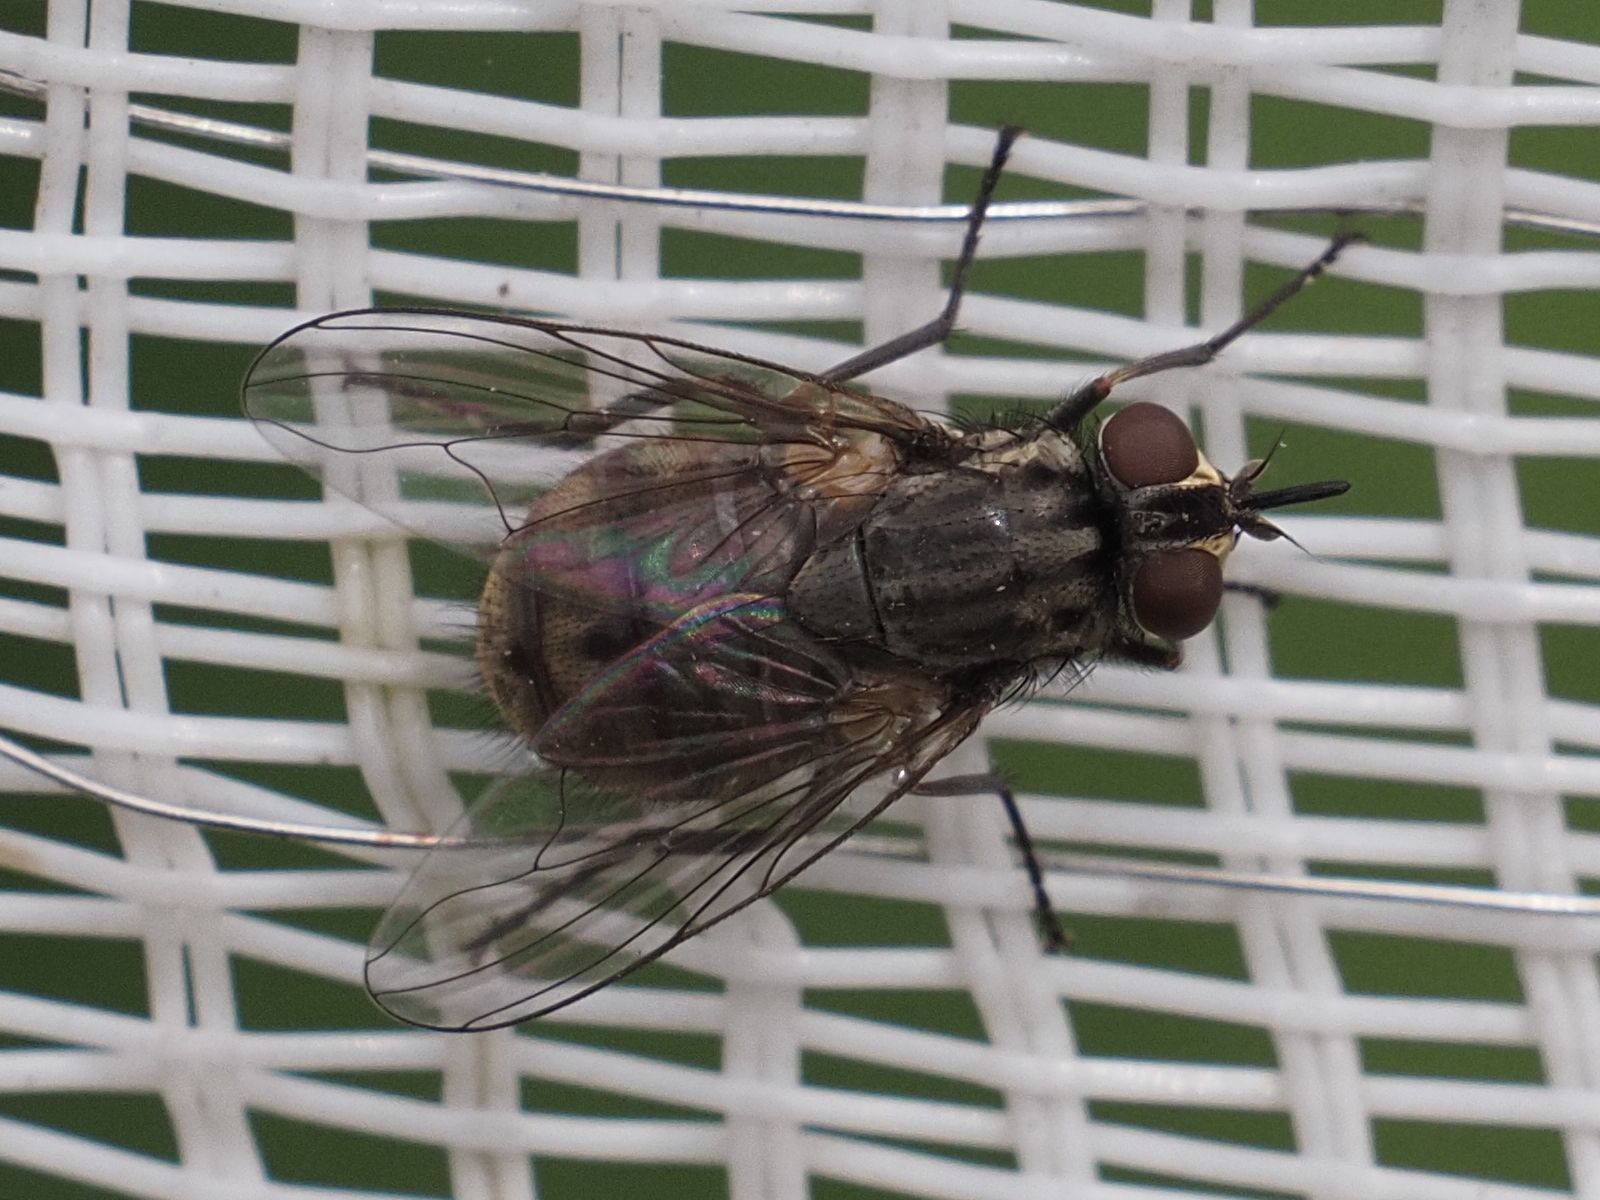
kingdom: Animalia
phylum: Arthropoda
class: Insecta
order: Diptera
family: Muscidae
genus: Stomoxys
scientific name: Stomoxys calcitrans
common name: Stable fly
